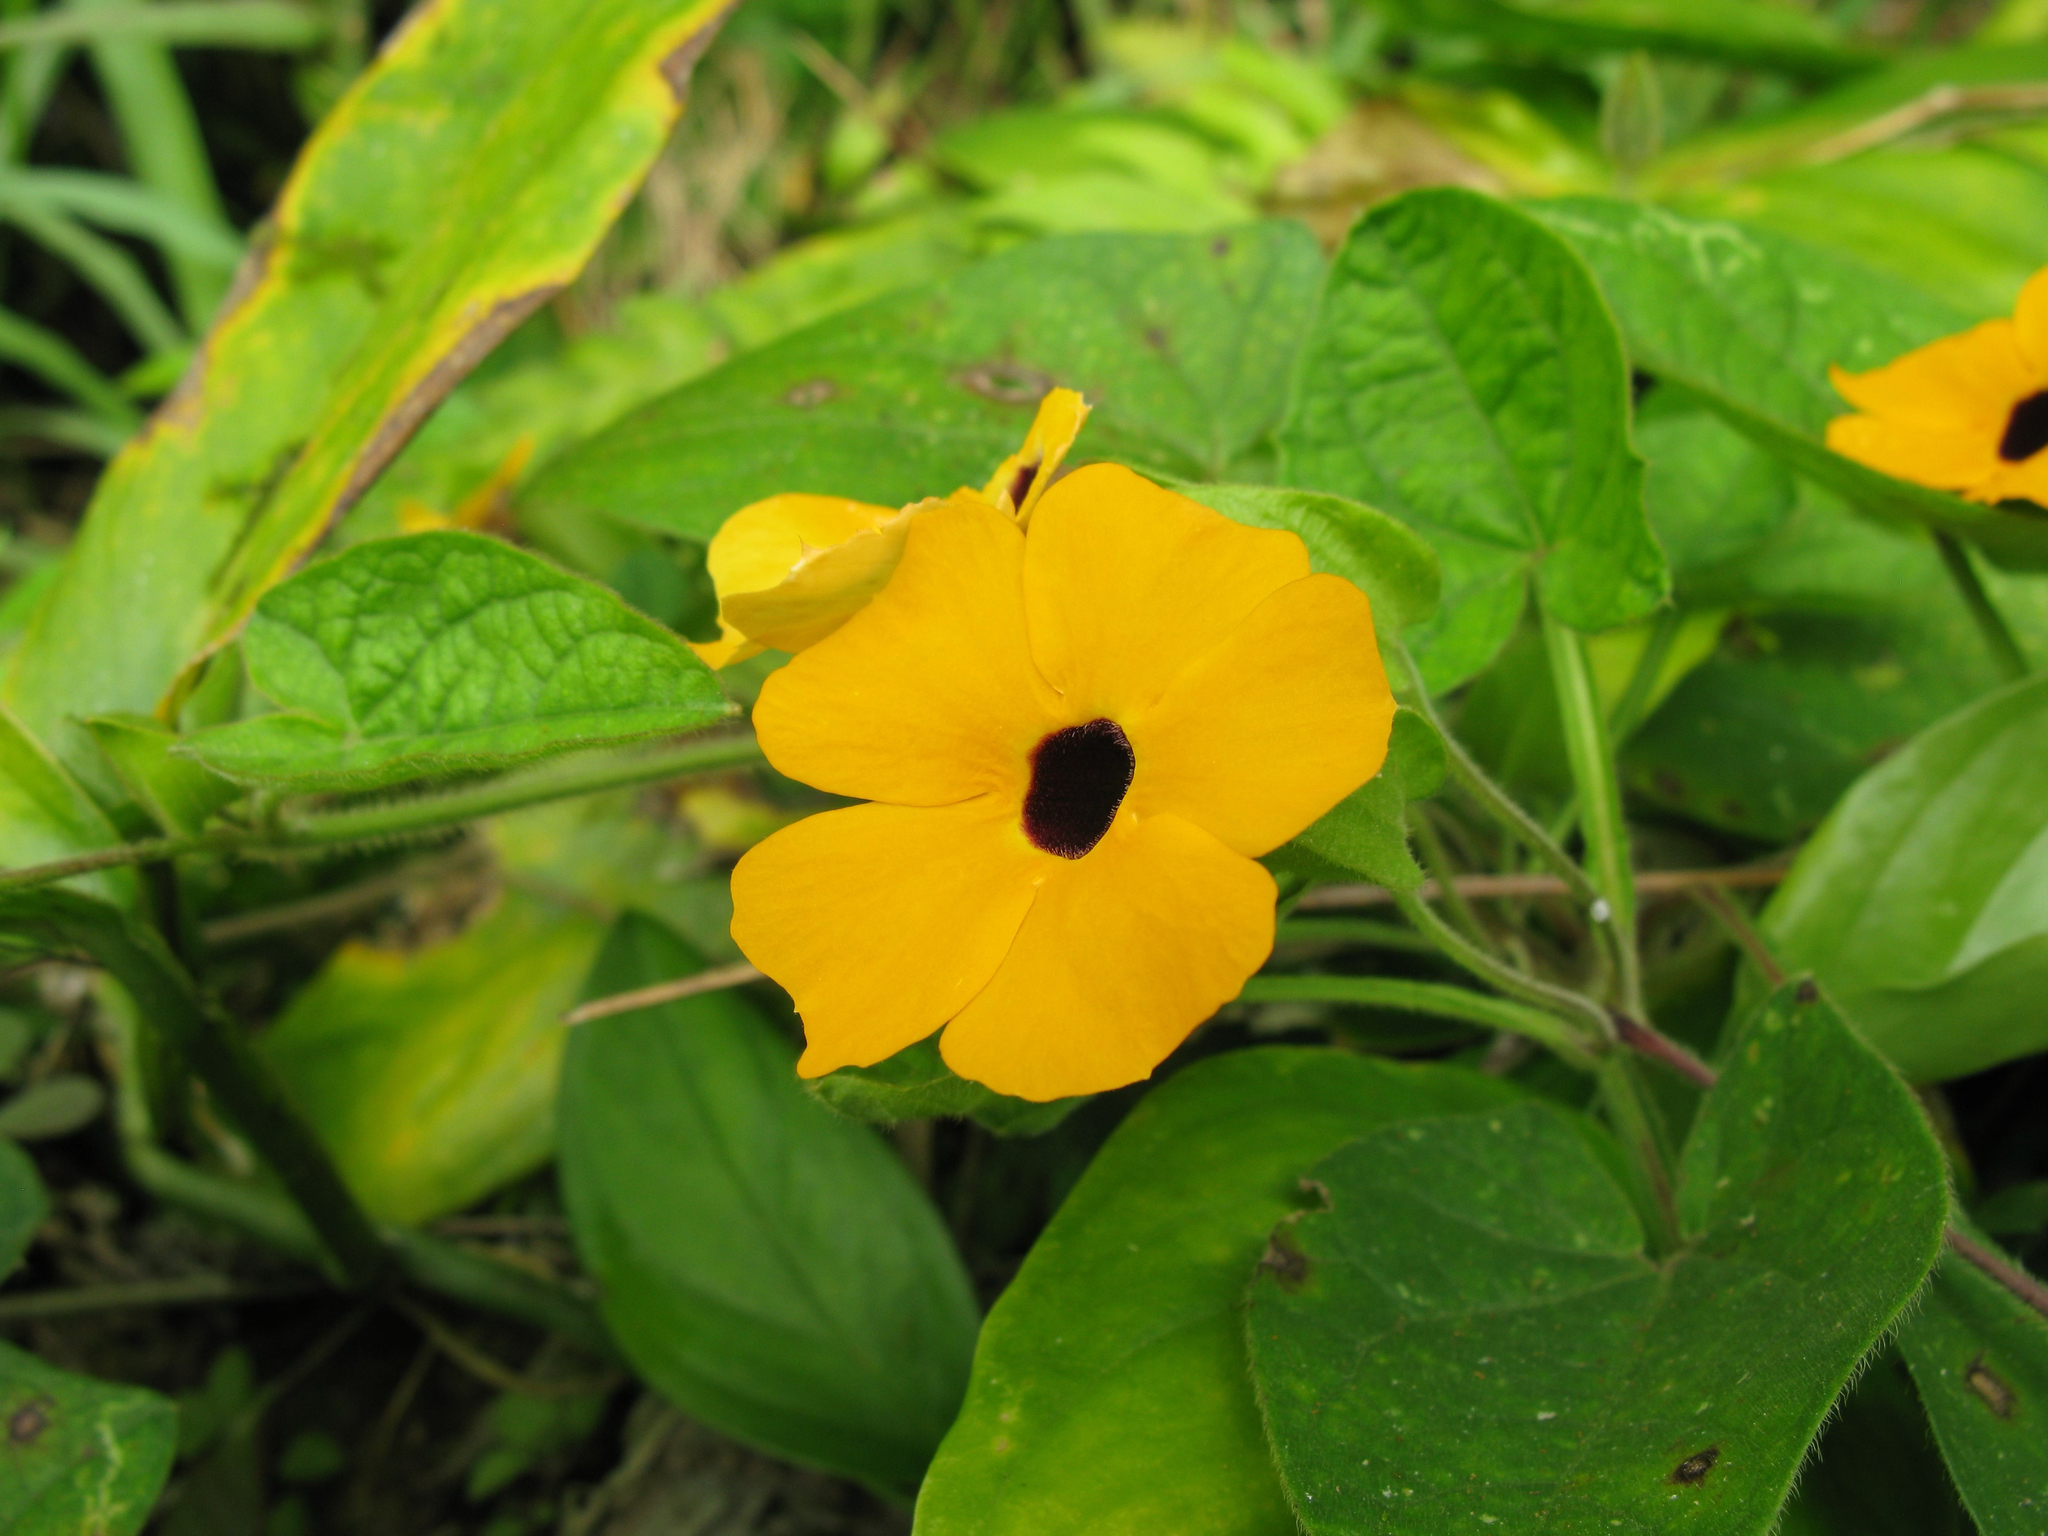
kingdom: Plantae
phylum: Tracheophyta
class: Magnoliopsida
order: Lamiales
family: Acanthaceae
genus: Thunbergia
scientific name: Thunbergia alata
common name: Blackeyed susan vine
